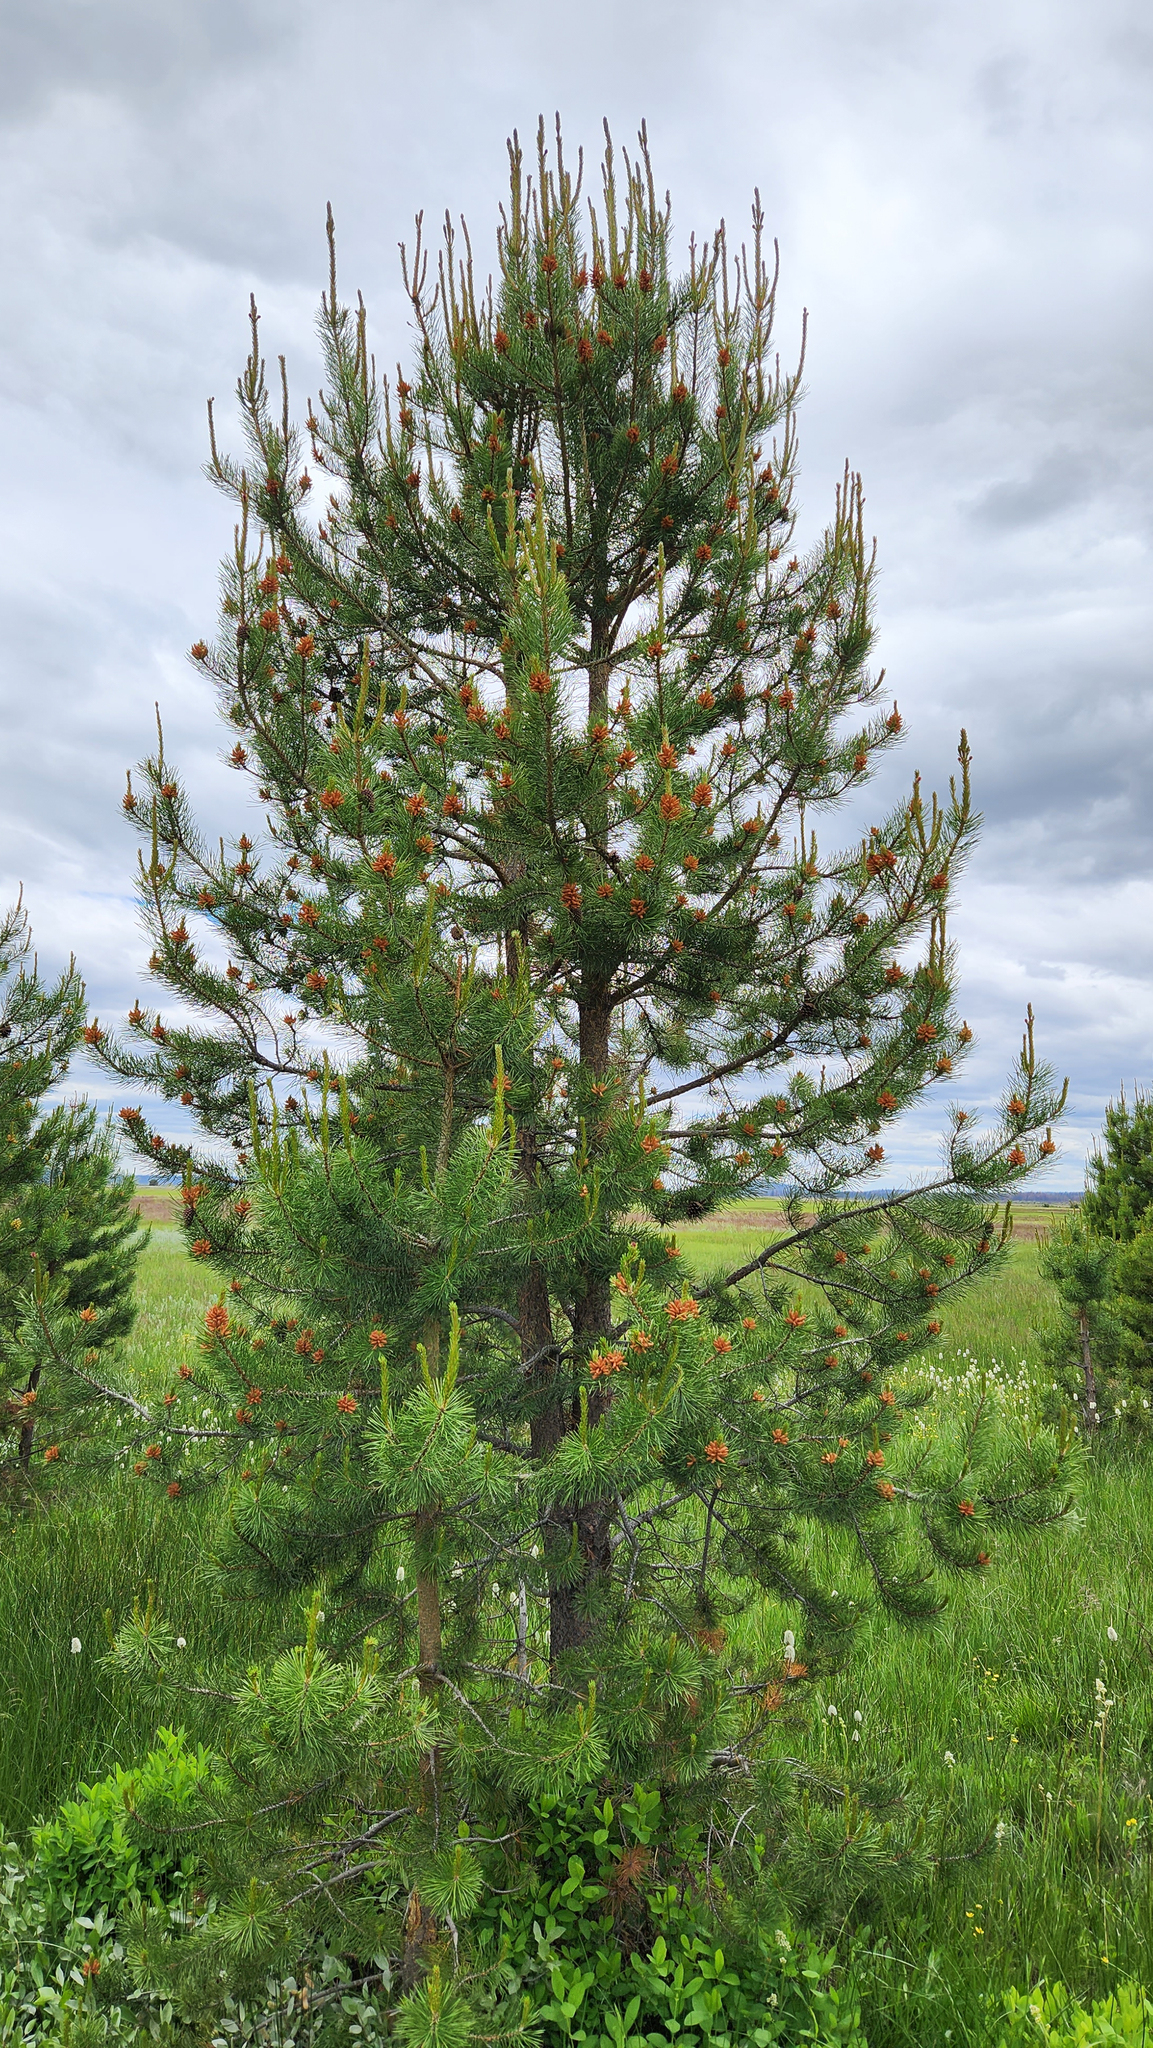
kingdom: Plantae
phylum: Tracheophyta
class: Pinopsida
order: Pinales
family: Pinaceae
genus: Pinus
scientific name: Pinus contorta
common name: Lodgepole pine
